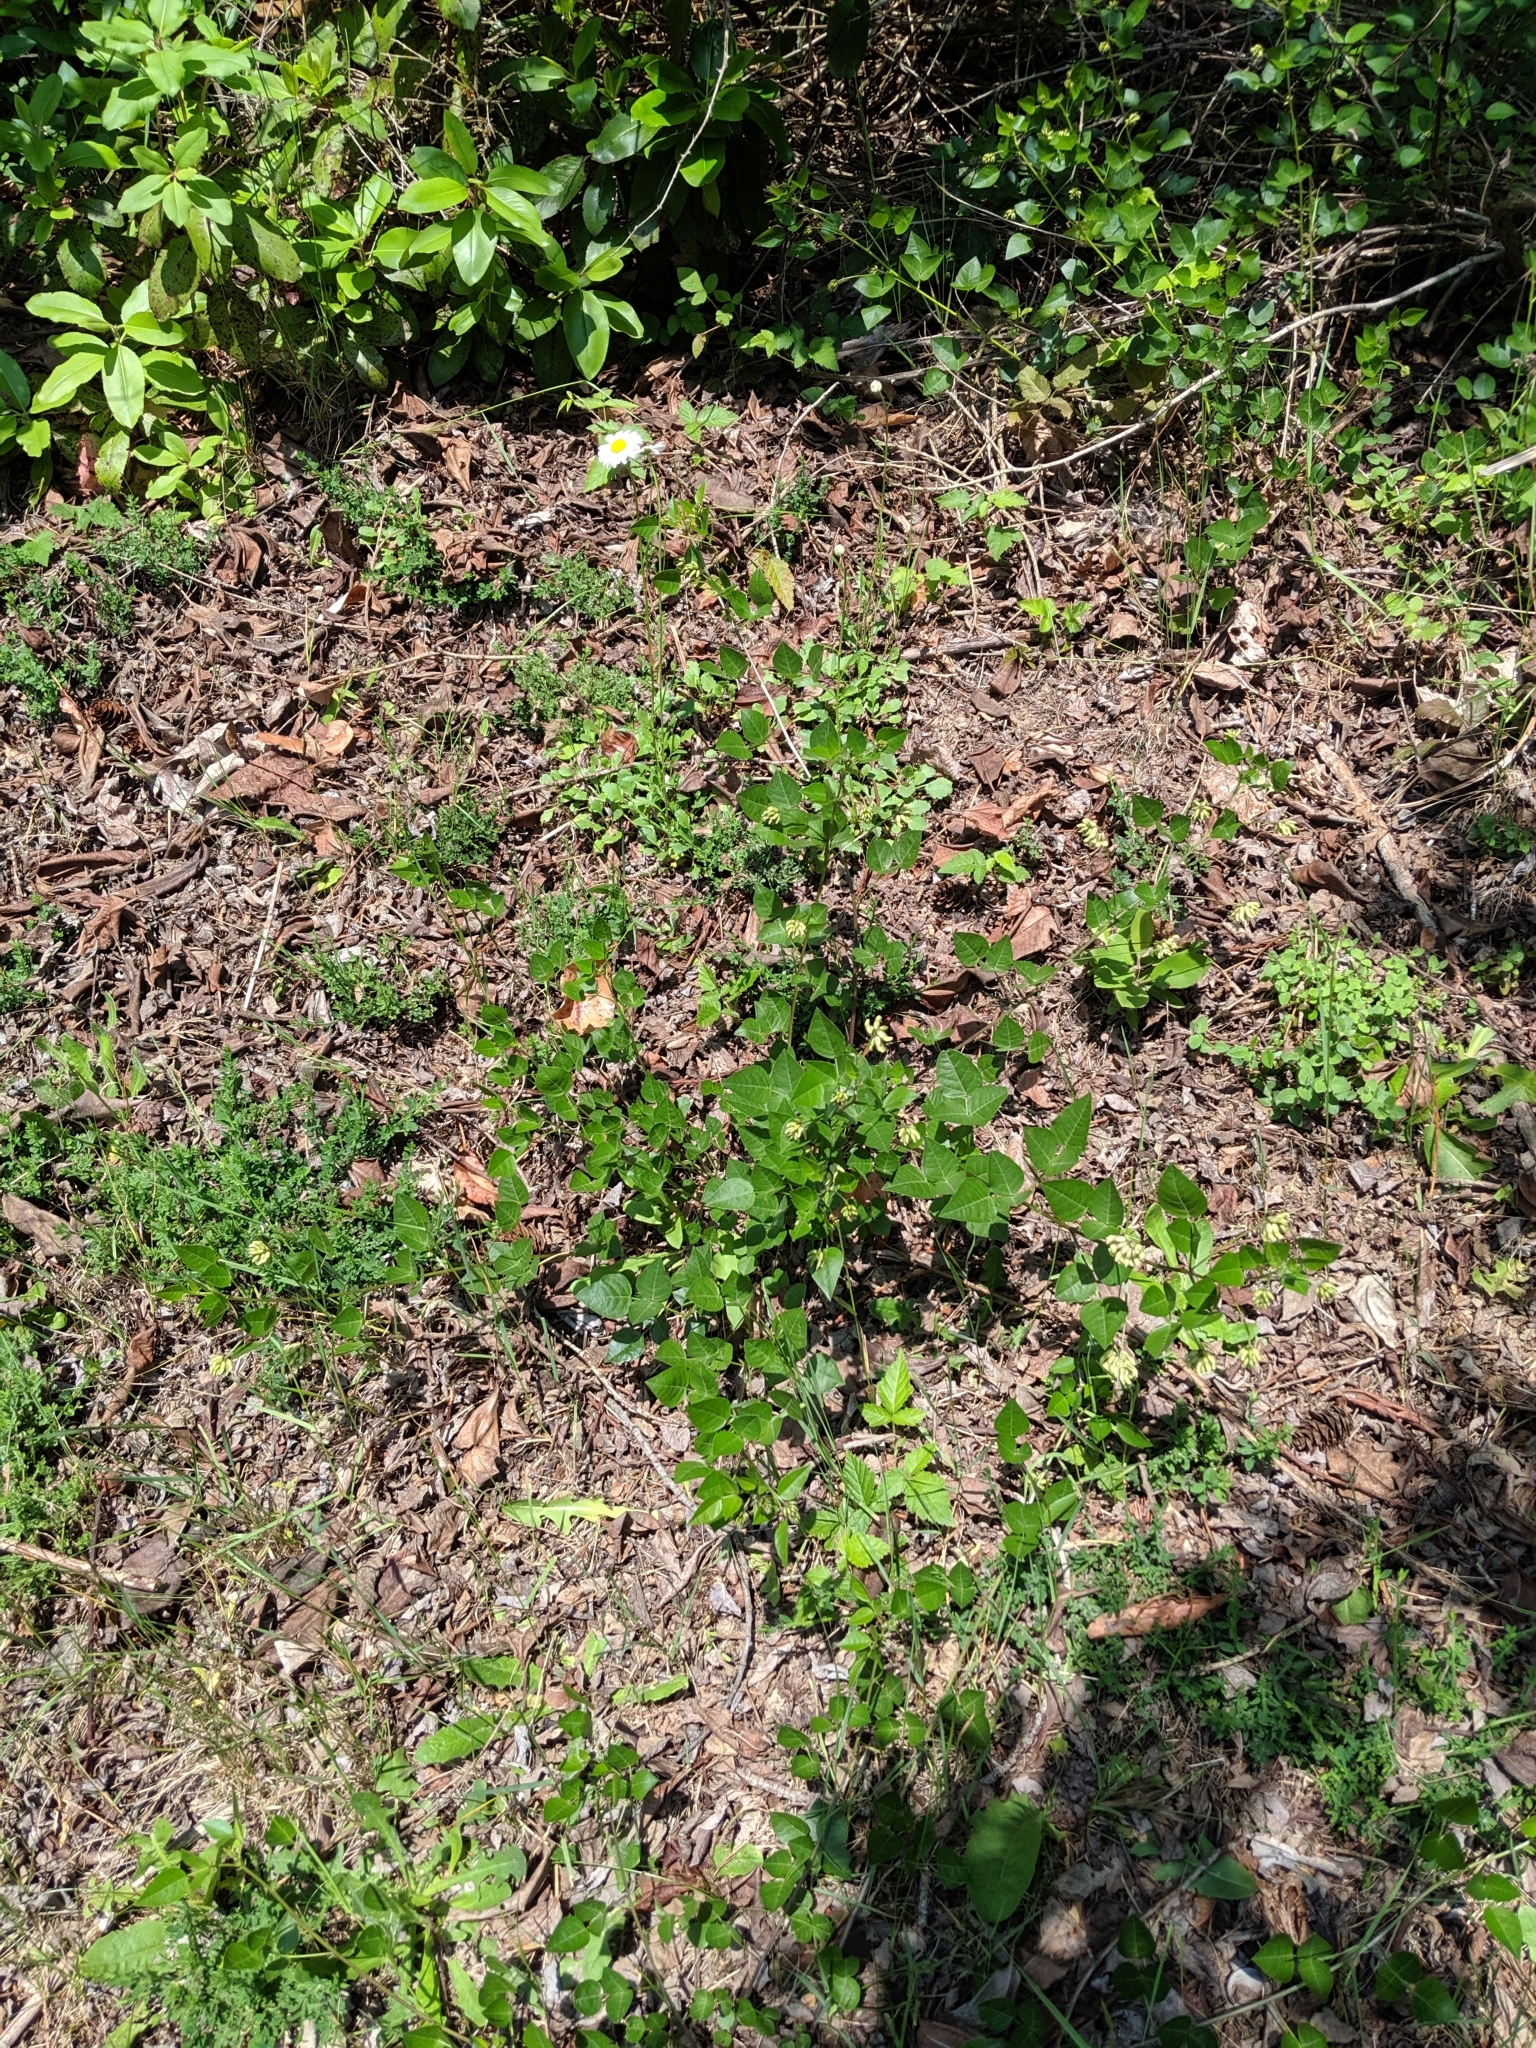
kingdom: Plantae
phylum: Tracheophyta
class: Magnoliopsida
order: Fabales
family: Fabaceae
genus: Rupertia
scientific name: Rupertia physodes
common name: California-tea
